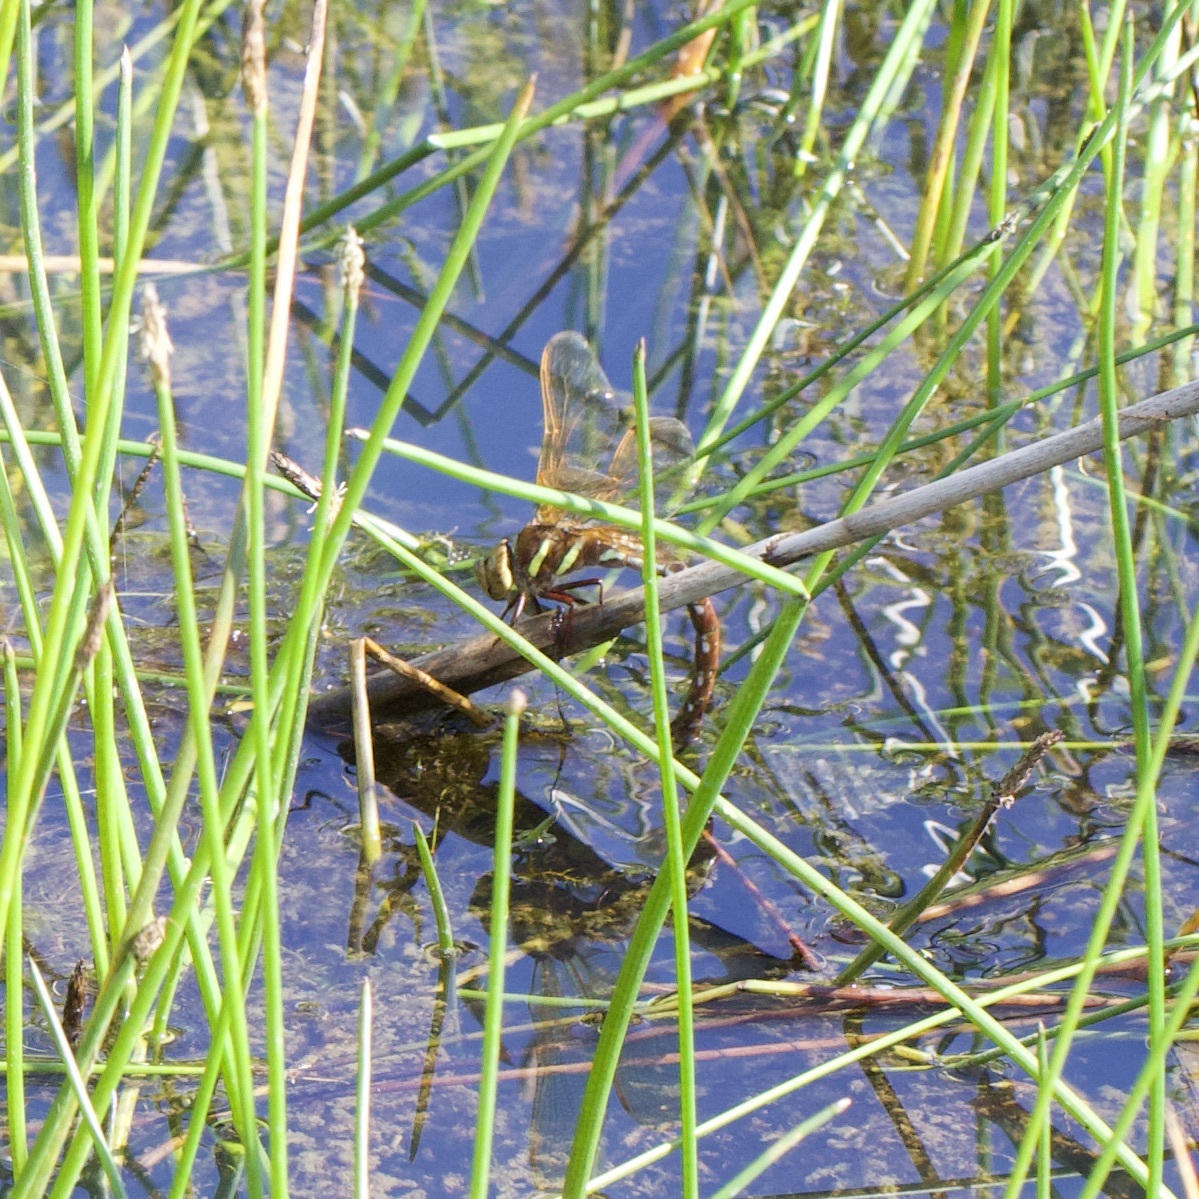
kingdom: Animalia
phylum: Arthropoda
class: Insecta
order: Odonata
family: Aeshnidae
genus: Aeshna
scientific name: Aeshna grandis
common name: Brown hawker
